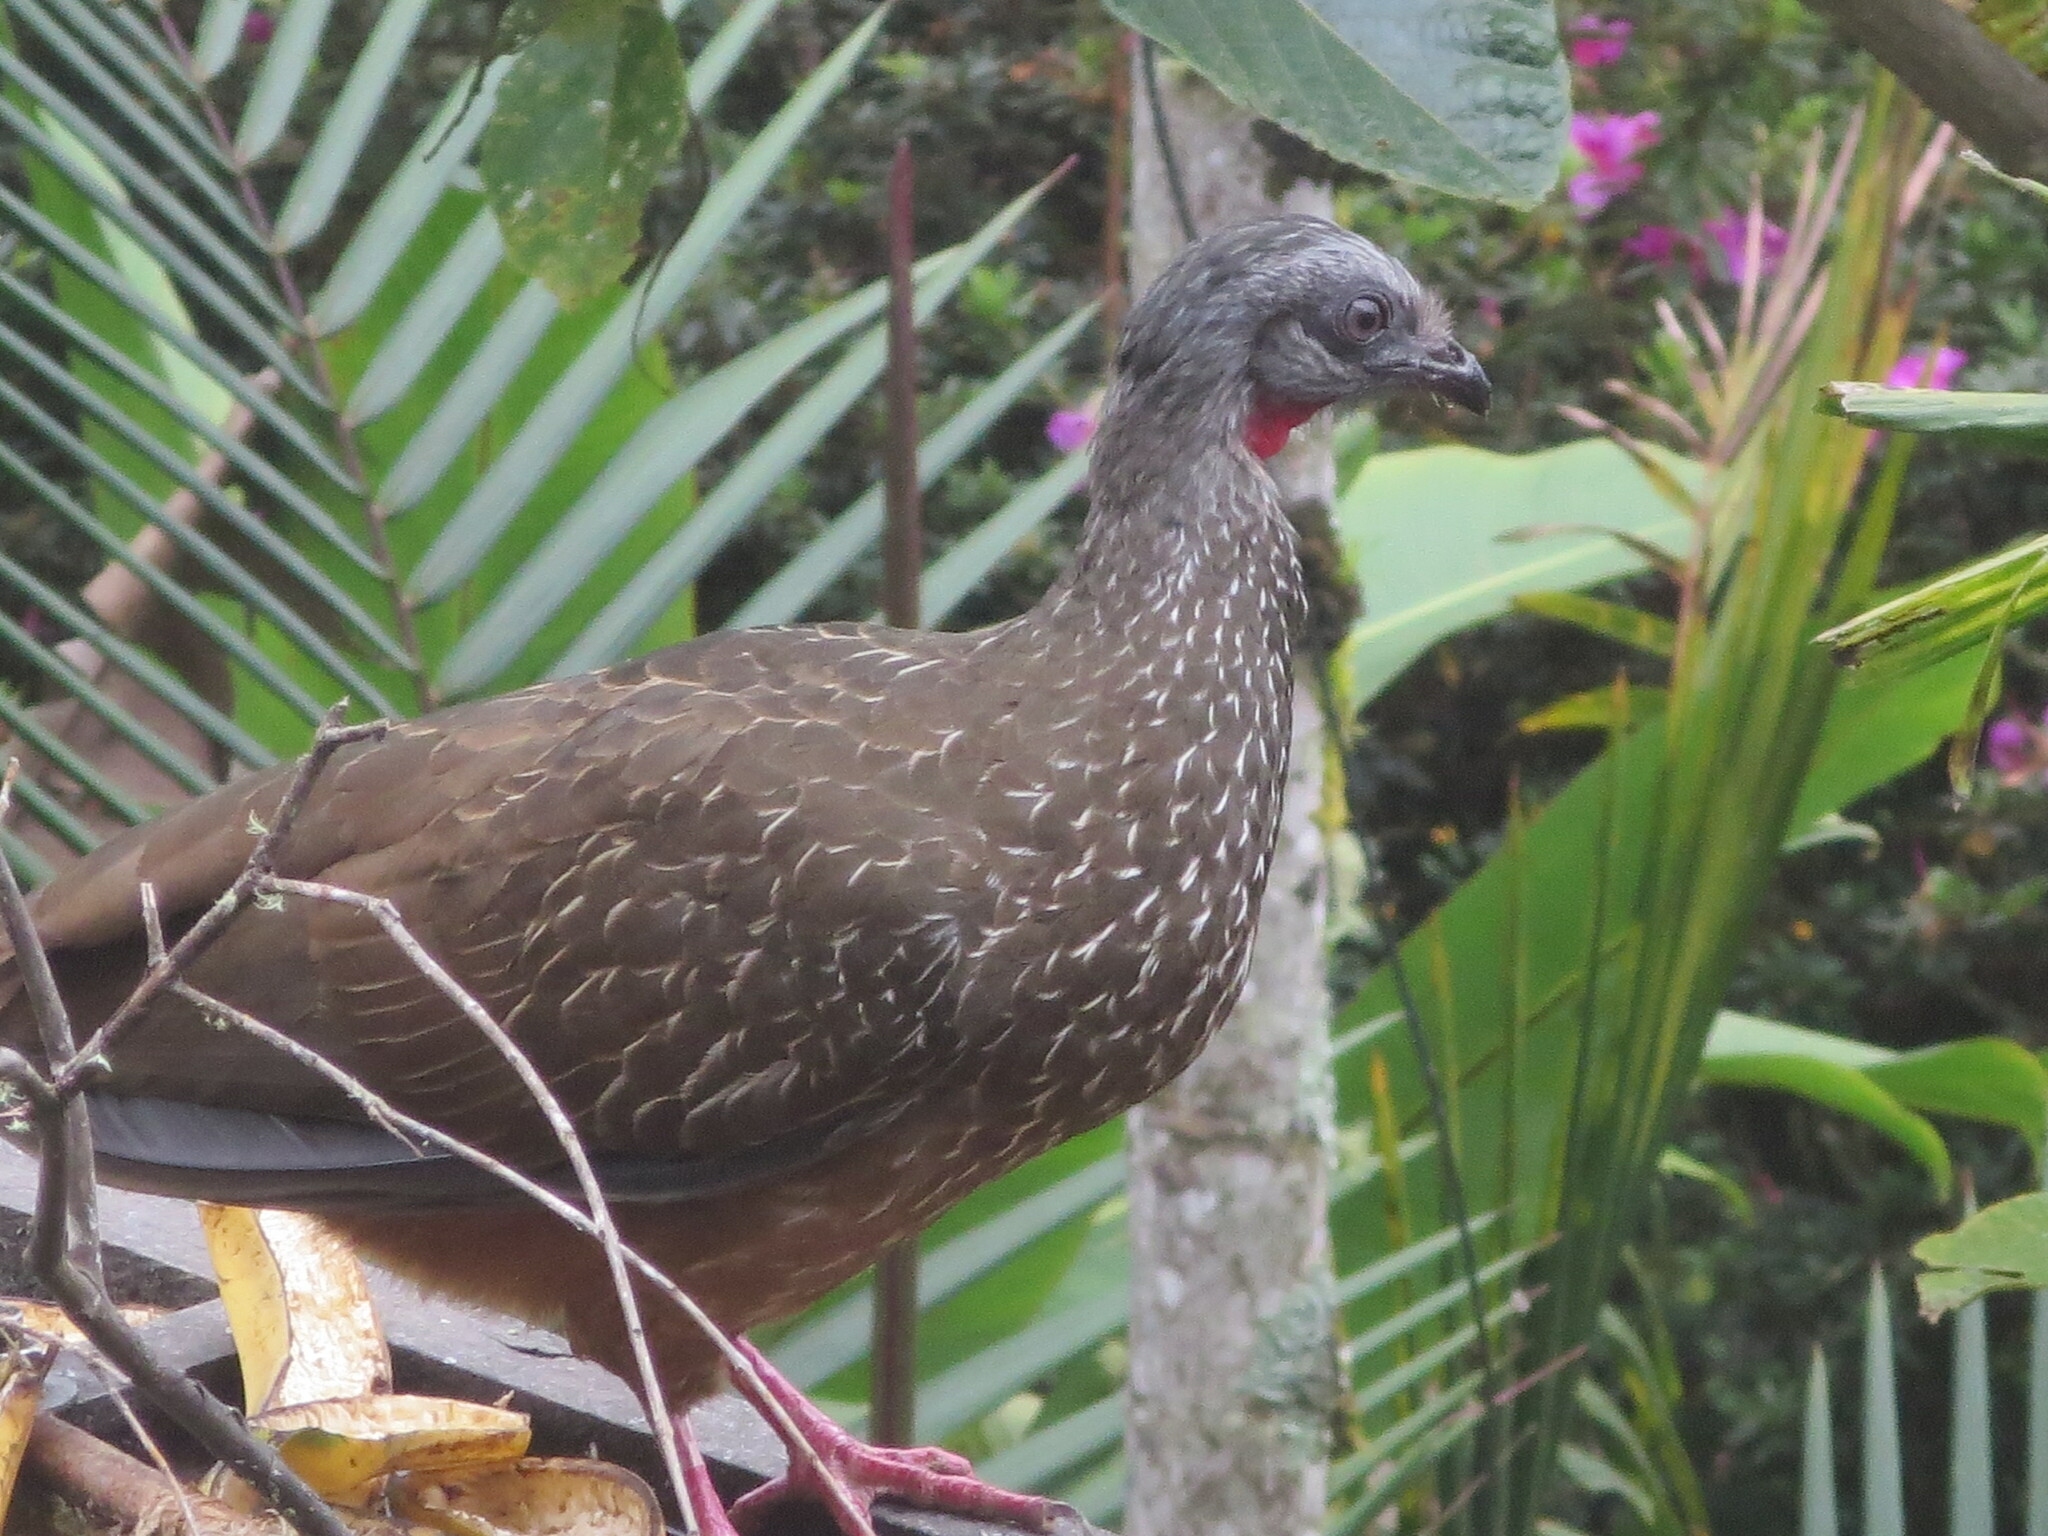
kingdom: Animalia
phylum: Chordata
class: Aves
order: Galliformes
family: Cracidae
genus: Penelope
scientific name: Penelope argyrotis
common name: Band-tailed guan
